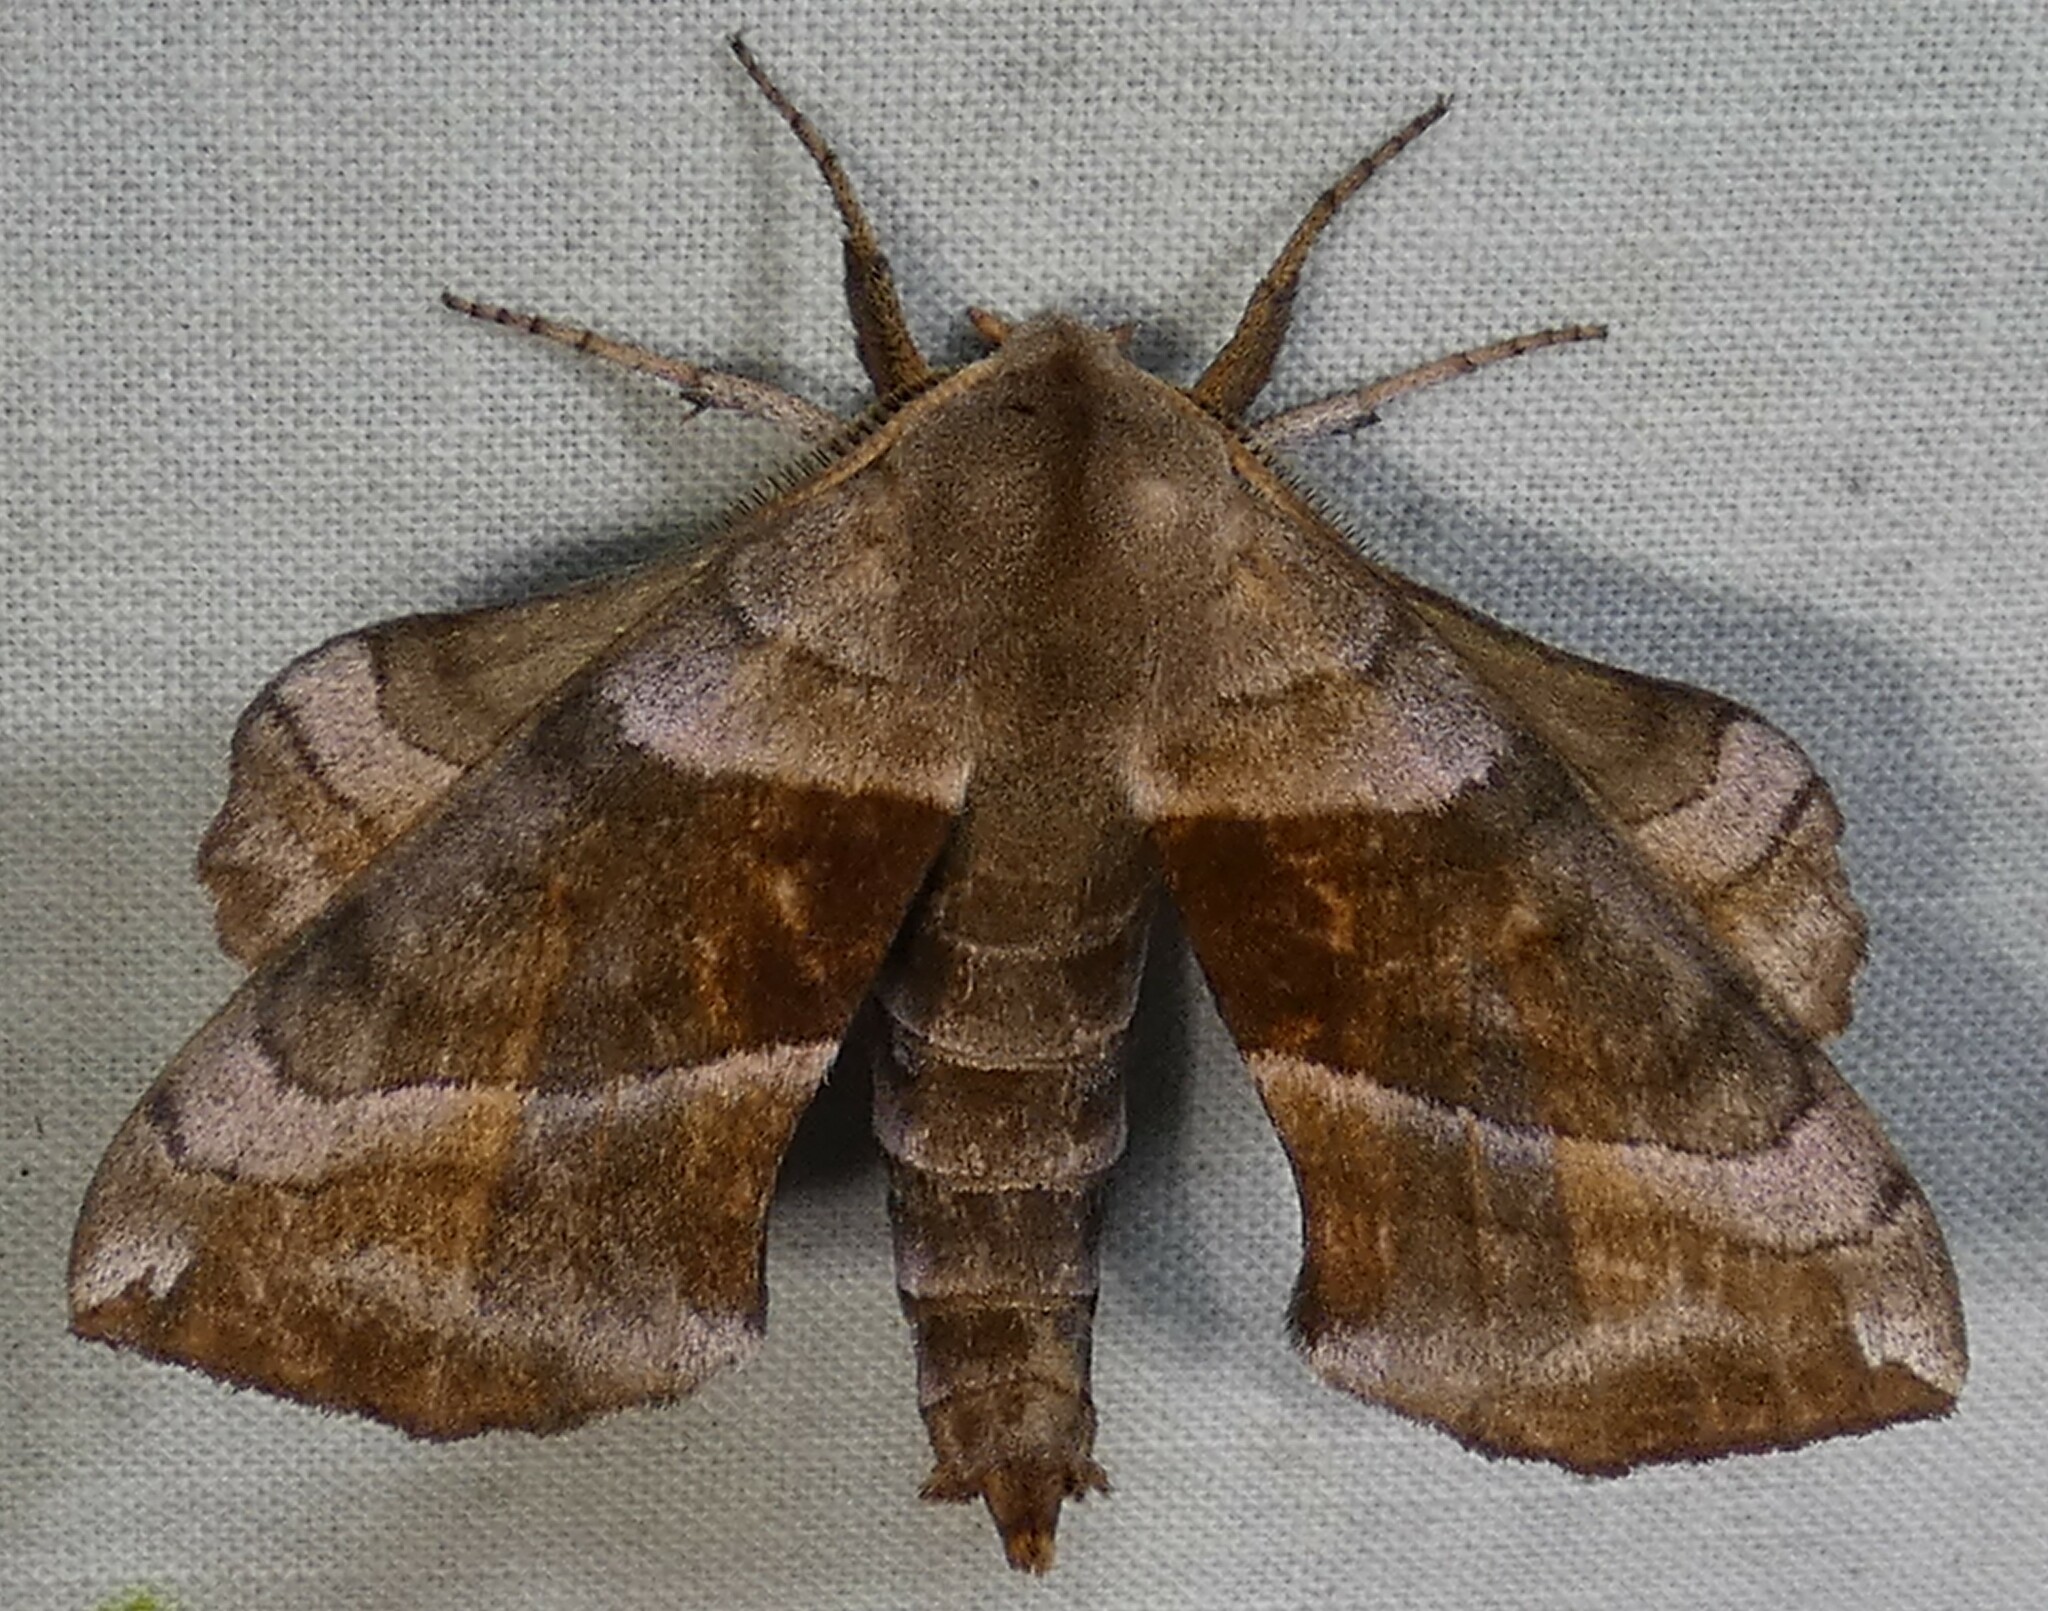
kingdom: Animalia
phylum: Arthropoda
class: Insecta
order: Lepidoptera
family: Sphingidae
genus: Amorpha
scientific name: Amorpha juglandis
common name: Walnut sphinx
